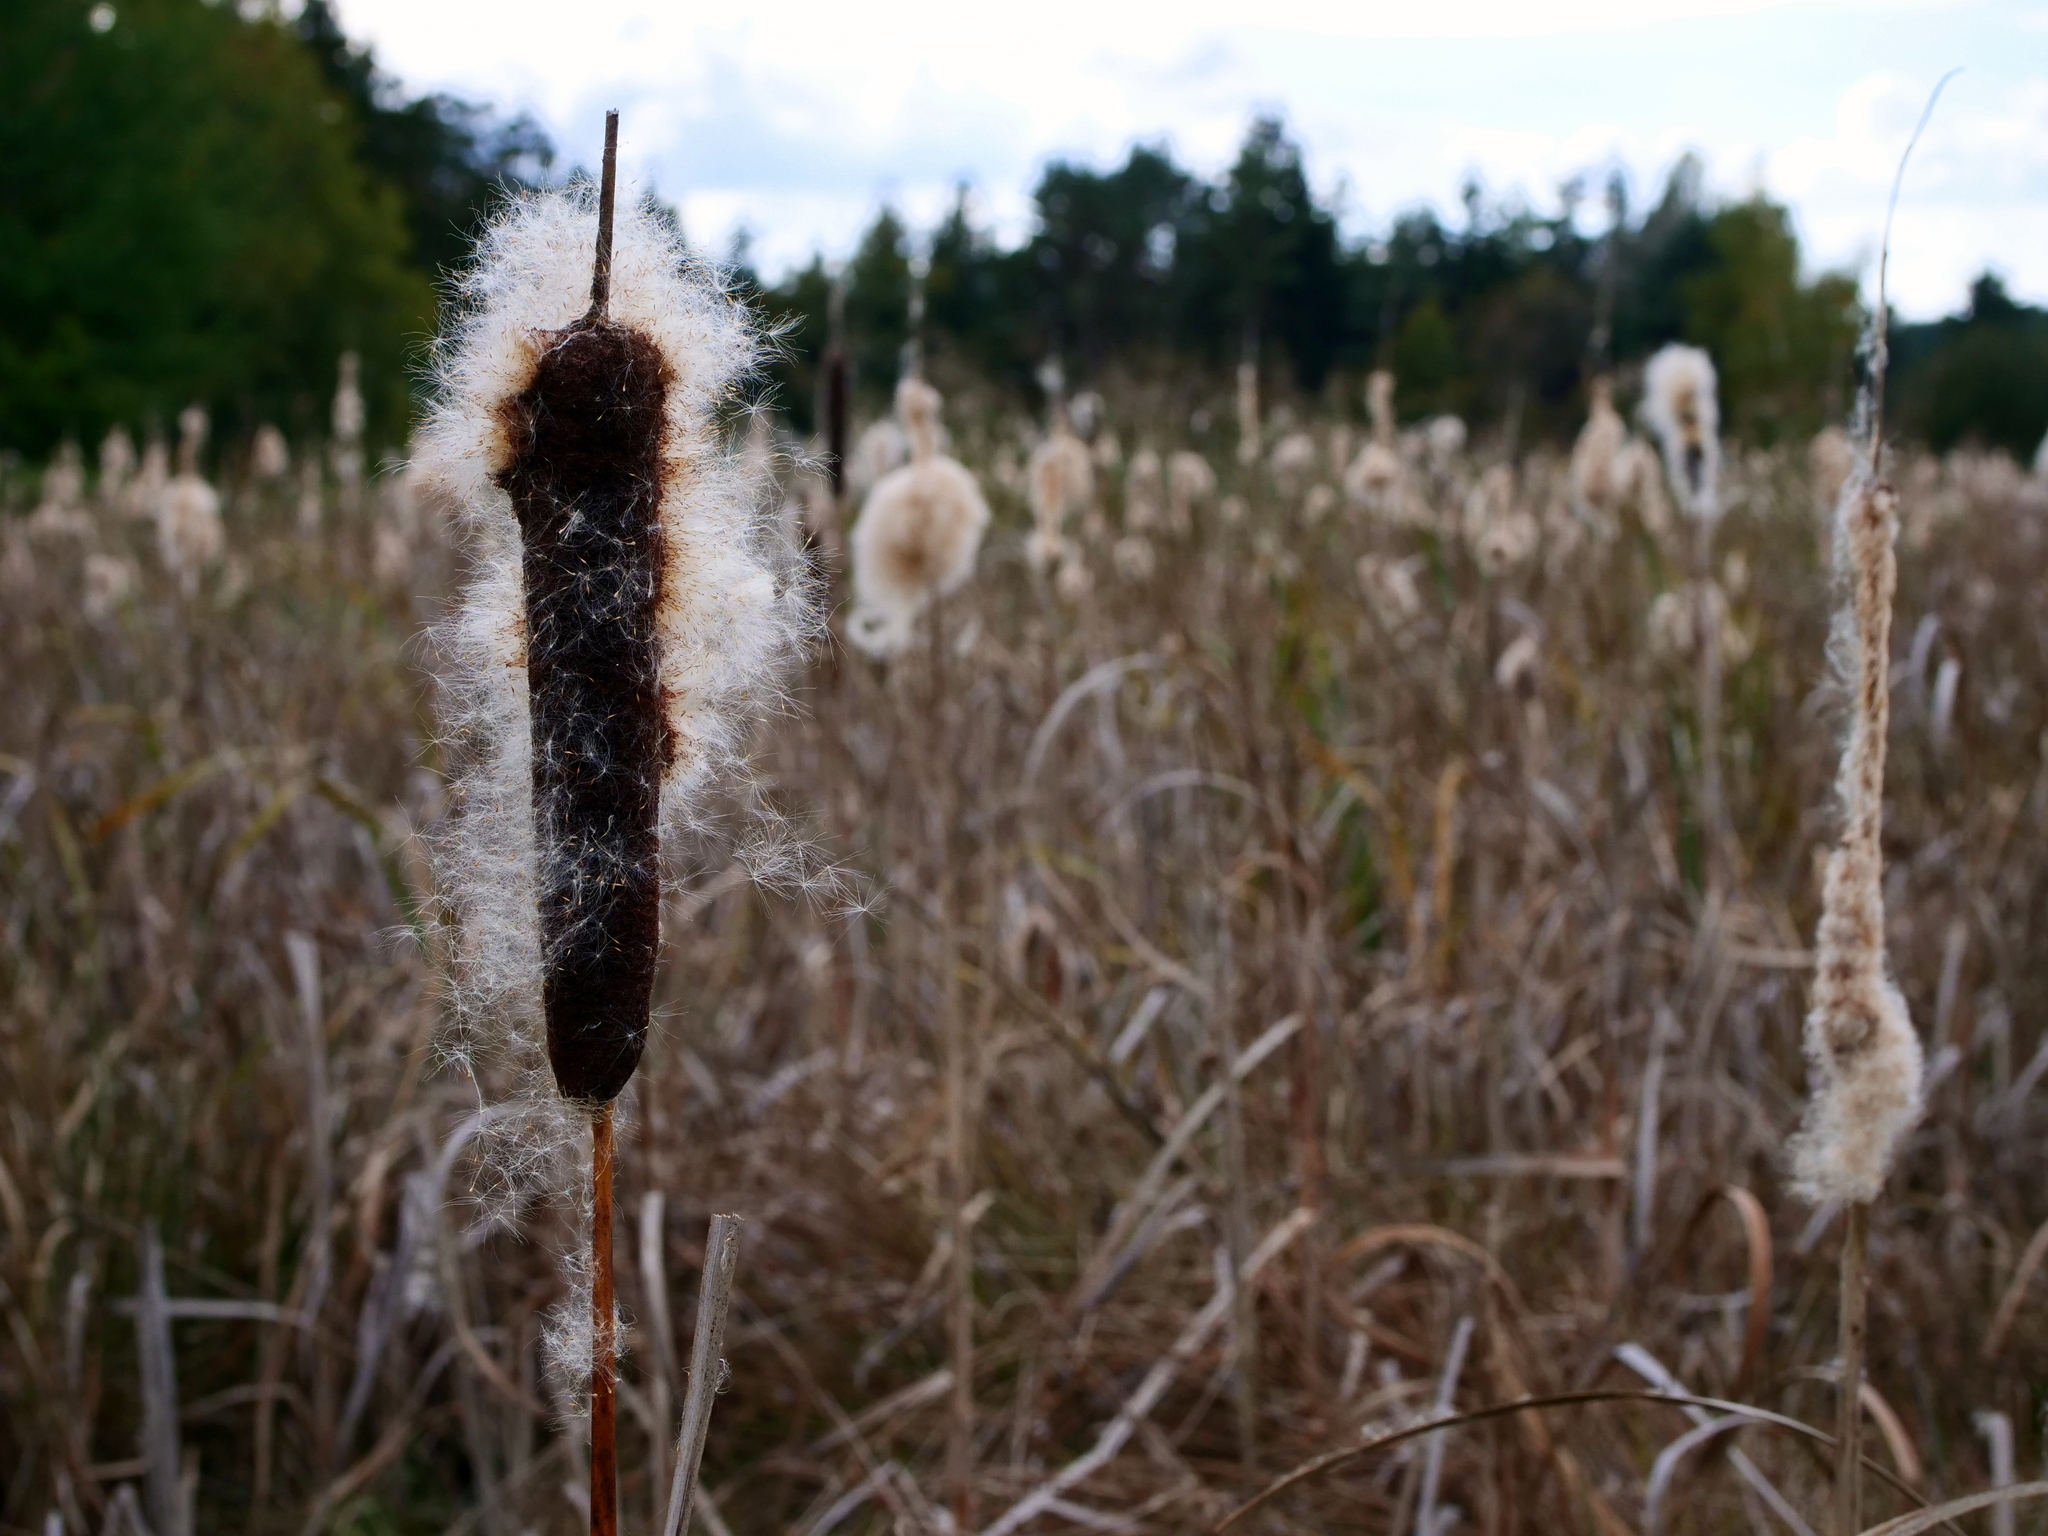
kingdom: Plantae
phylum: Tracheophyta
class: Liliopsida
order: Poales
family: Typhaceae
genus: Typha
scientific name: Typha latifolia
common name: Broadleaf cattail
